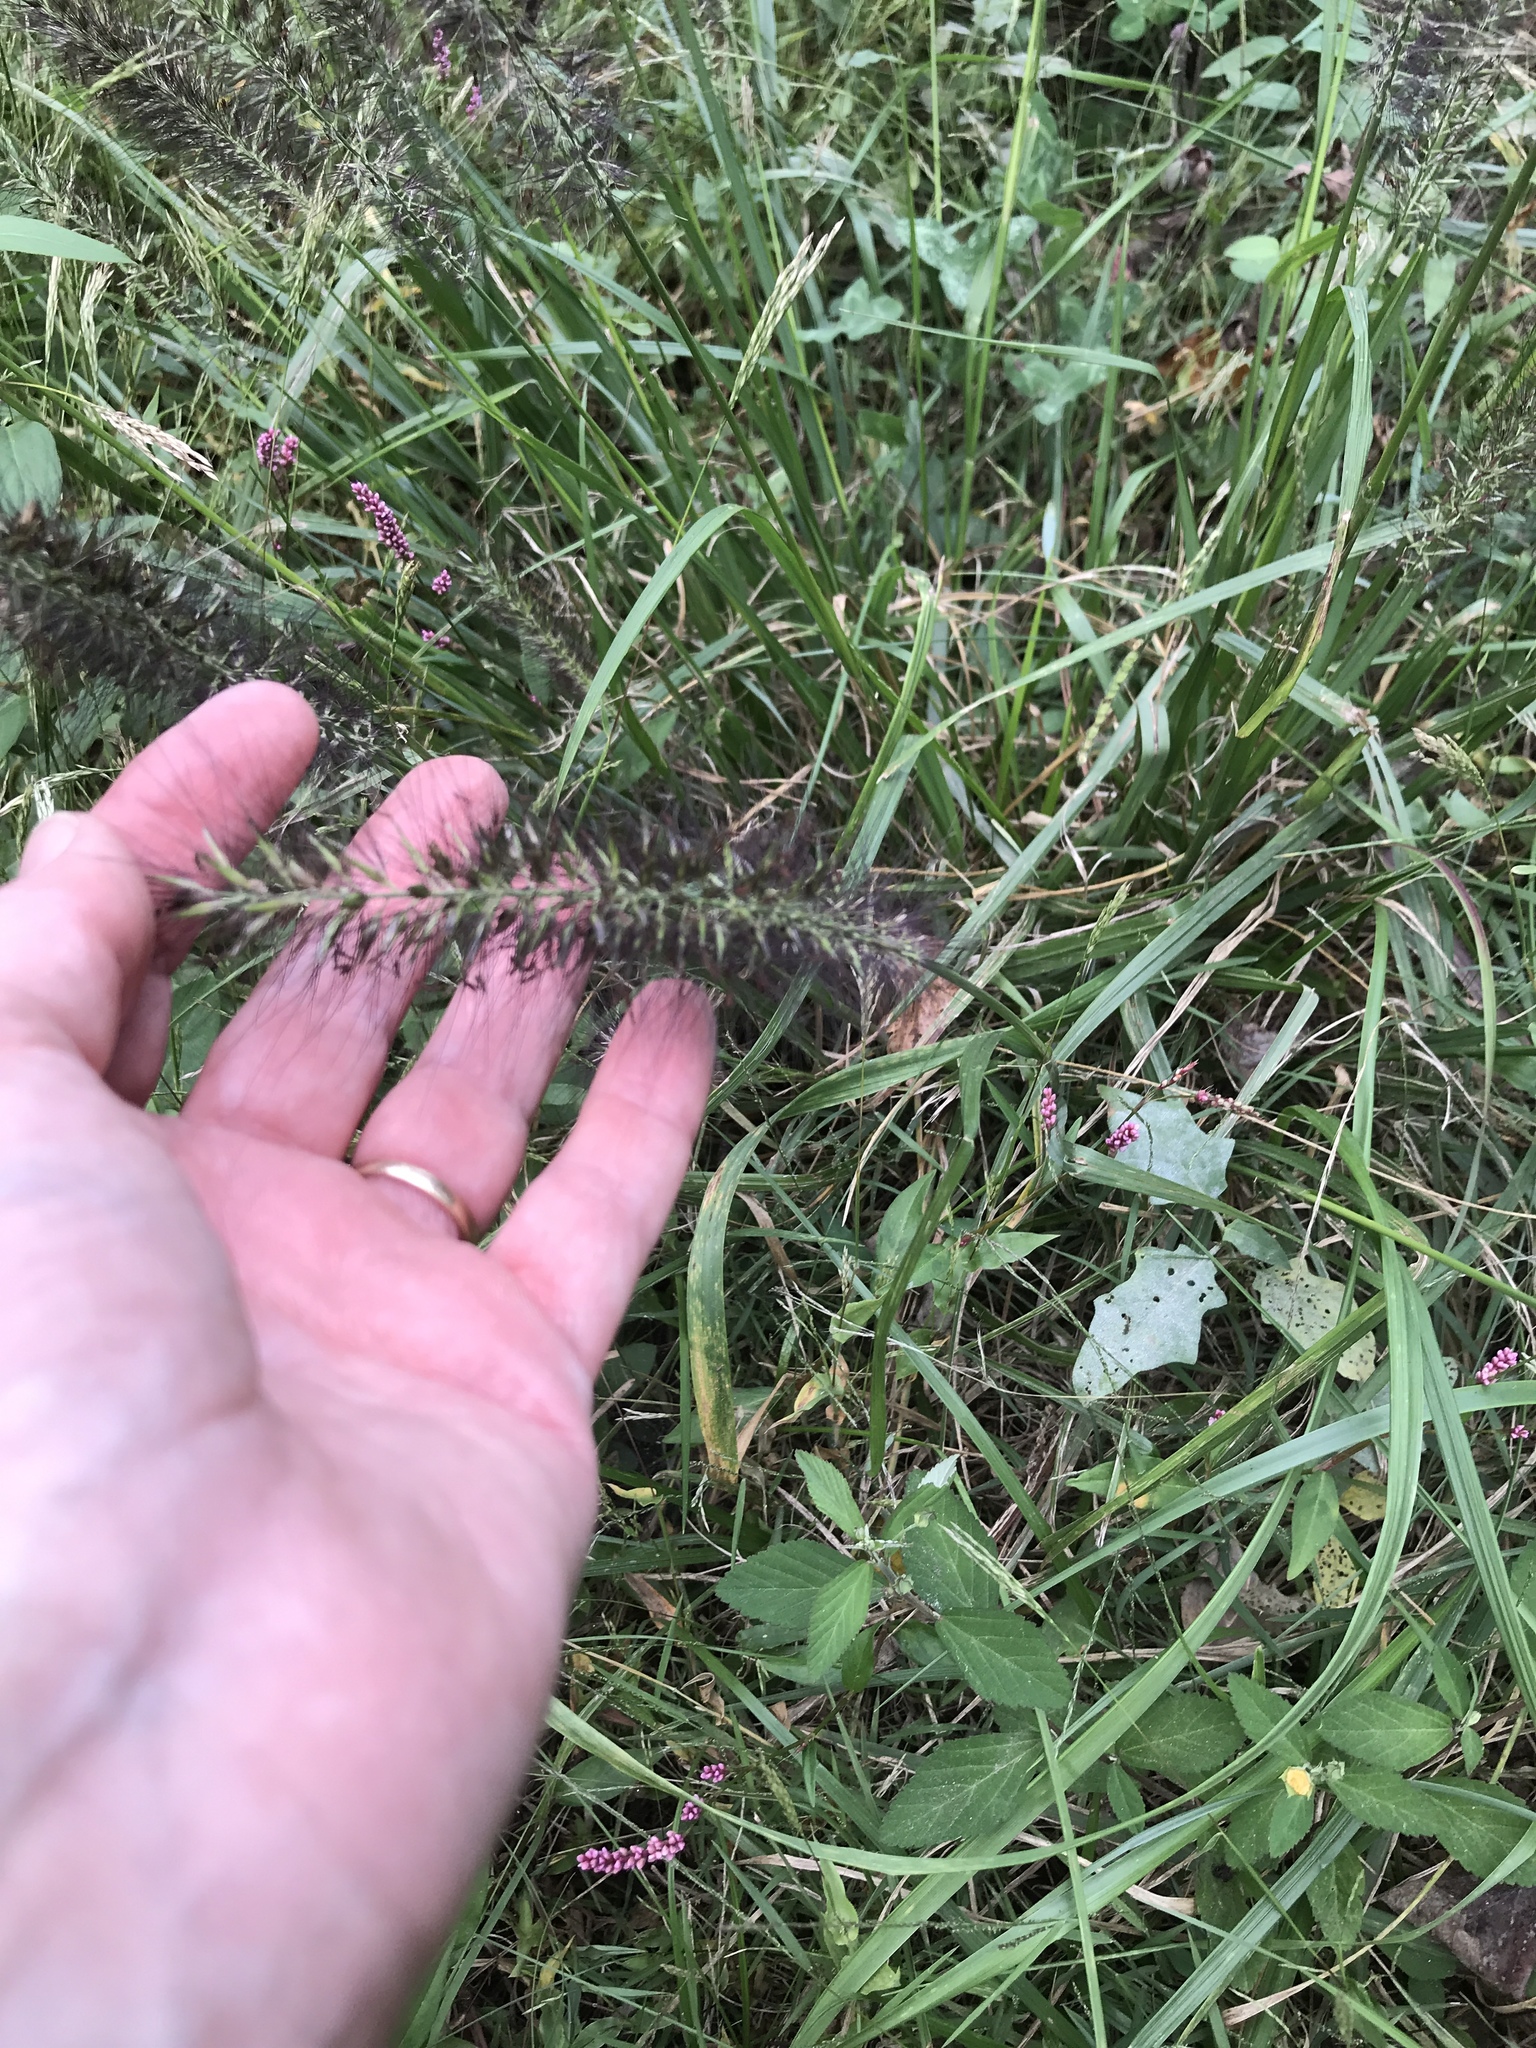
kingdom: Plantae
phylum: Tracheophyta
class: Liliopsida
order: Poales
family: Poaceae
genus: Cenchrus
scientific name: Cenchrus alopecuroides
